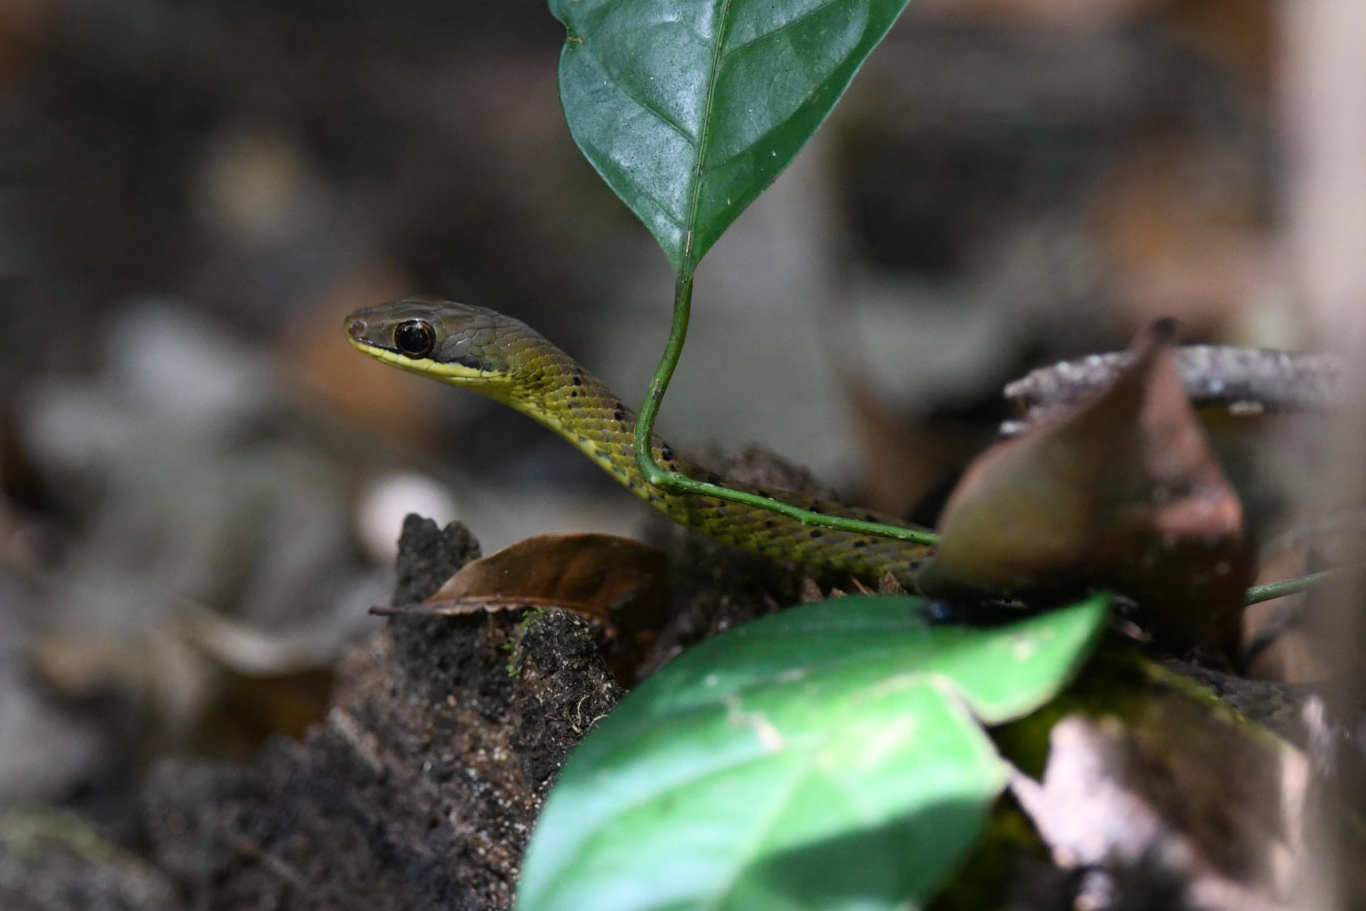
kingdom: Animalia
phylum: Chordata
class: Squamata
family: Colubridae
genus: Dendrophidion
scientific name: Dendrophidion percarinatum
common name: South american forest racer
